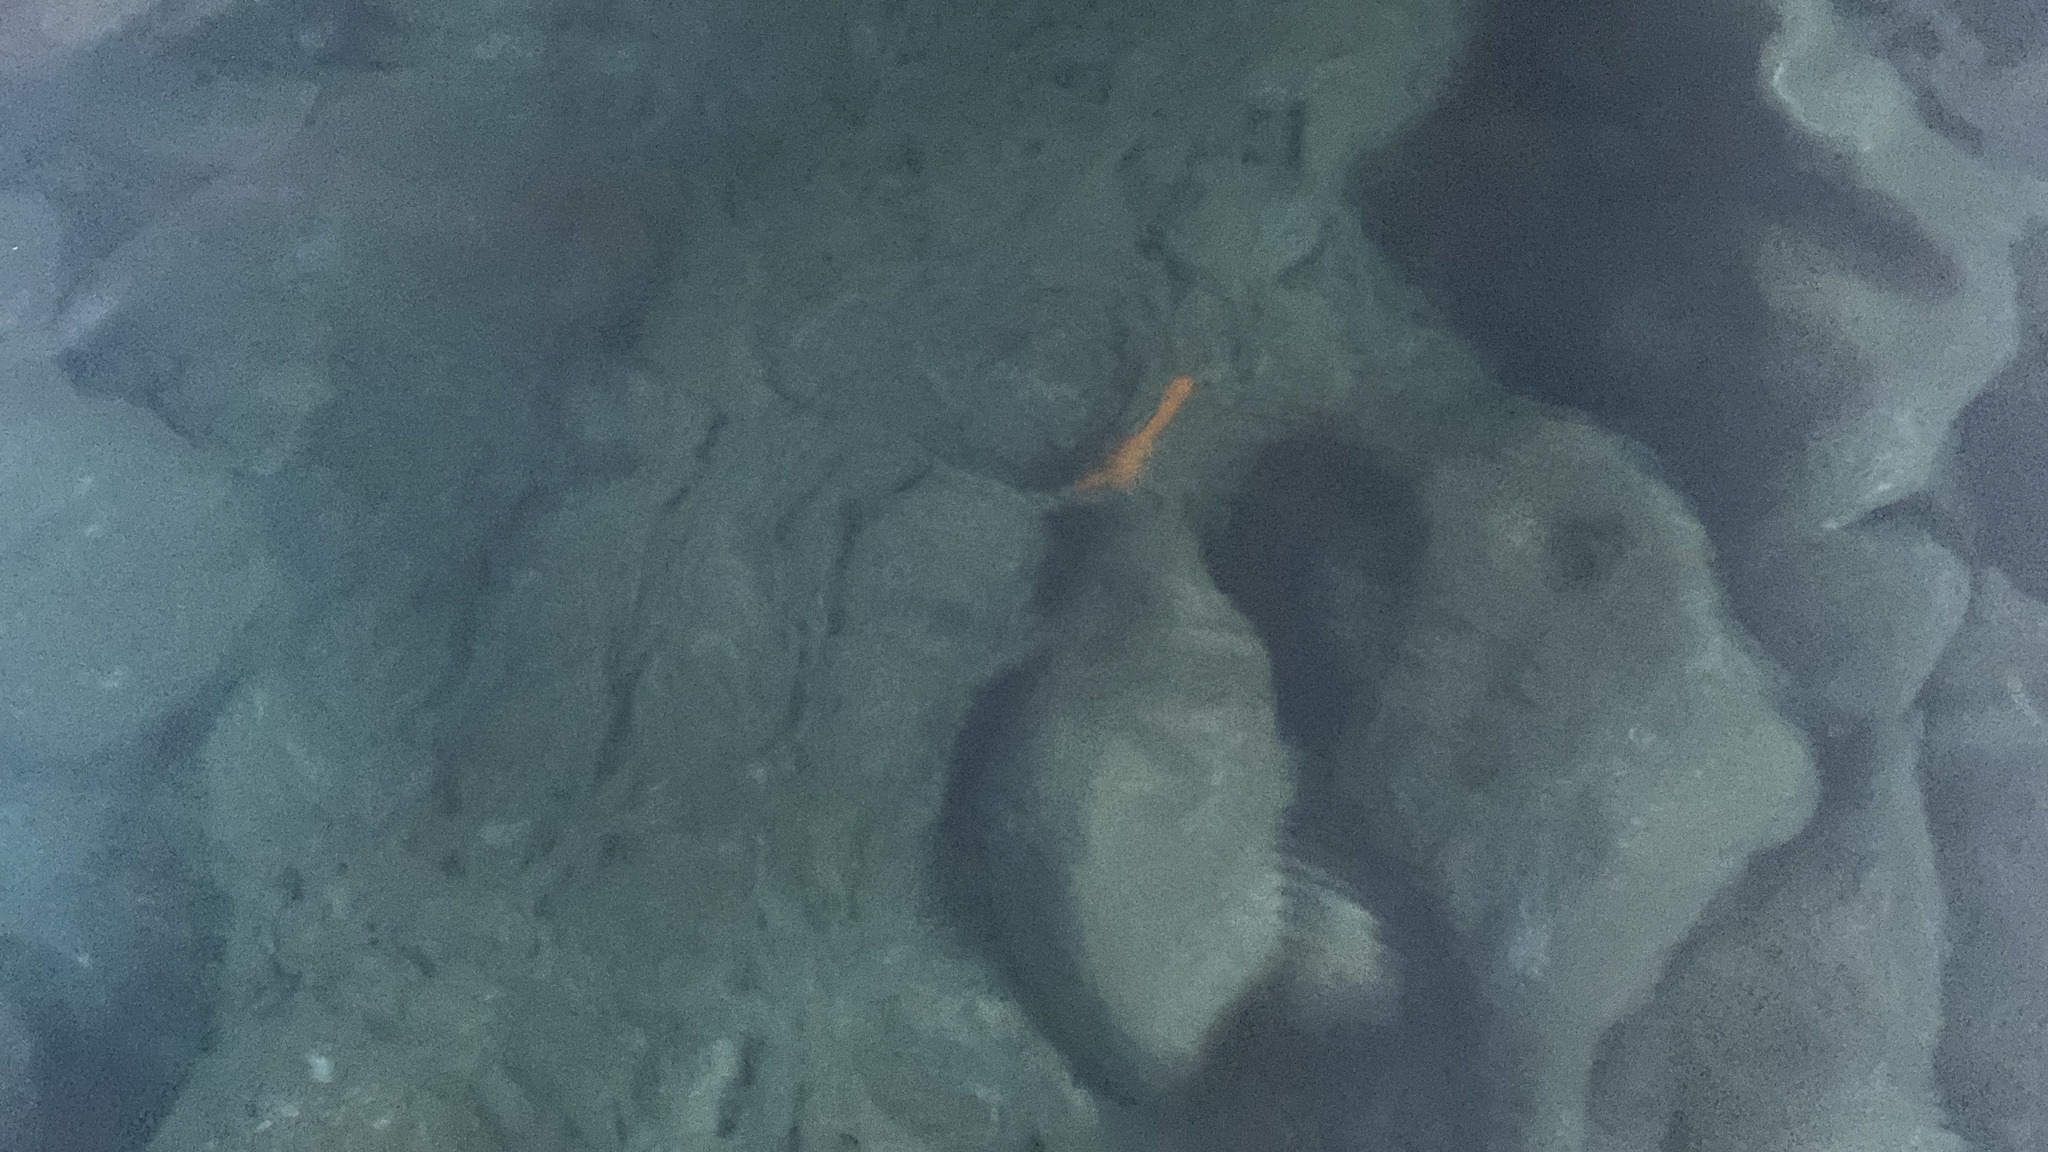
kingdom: Animalia
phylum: Chordata
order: Perciformes
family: Pomacentridae
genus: Hypsypops
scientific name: Hypsypops rubicundus
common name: Garibaldi
